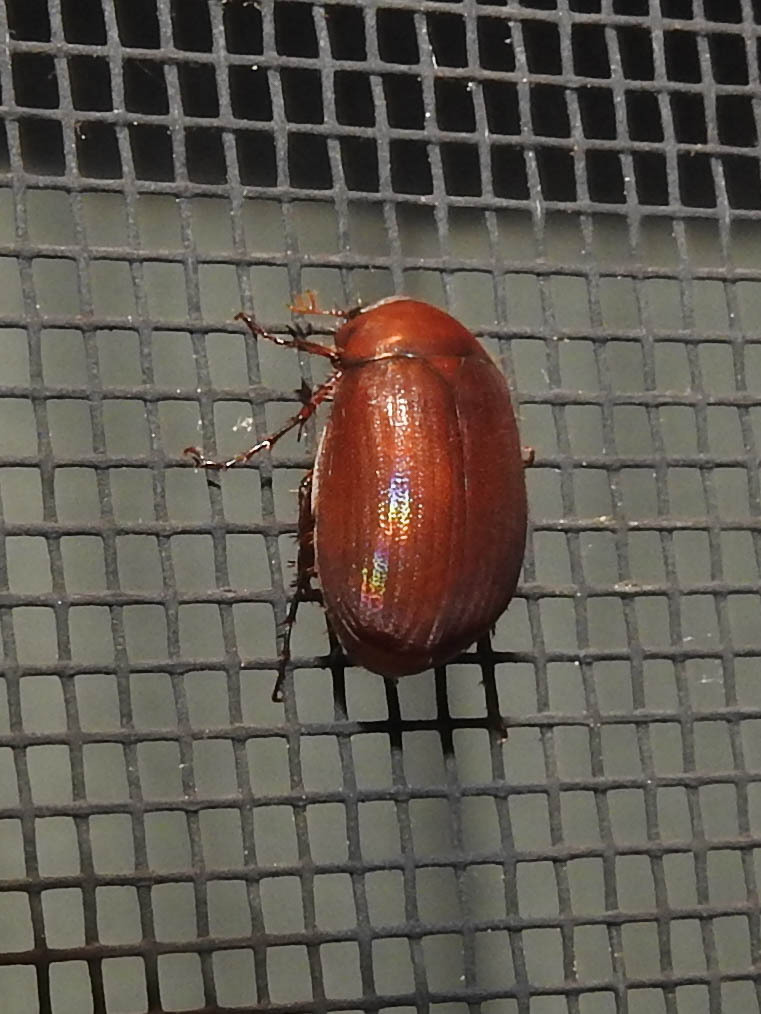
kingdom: Animalia
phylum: Arthropoda
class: Insecta
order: Coleoptera
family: Scarabaeidae
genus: Maladera
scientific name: Maladera formosae
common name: Asiatic garden beetle
